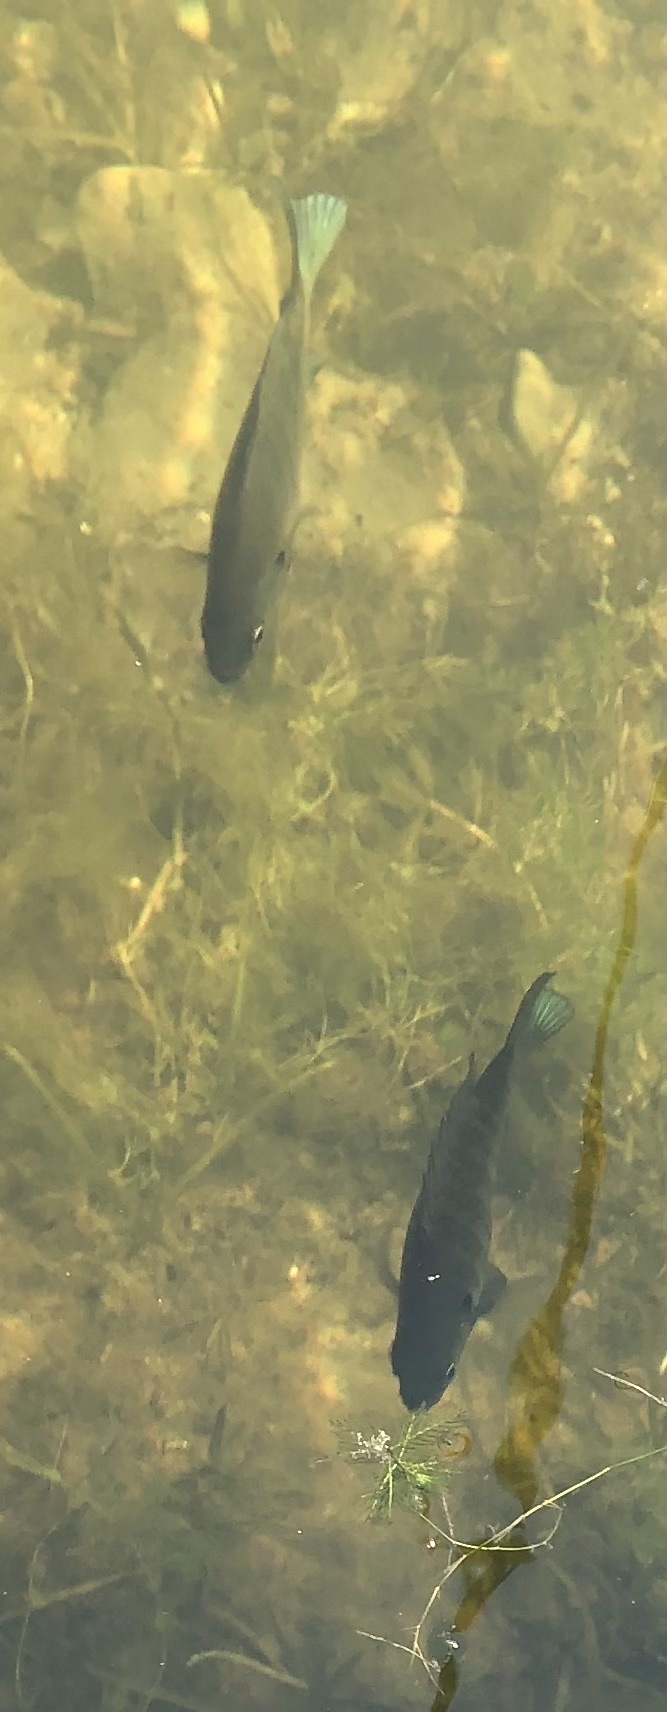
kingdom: Animalia
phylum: Chordata
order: Perciformes
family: Centrarchidae
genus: Lepomis
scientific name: Lepomis macrochirus
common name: Bluegill
